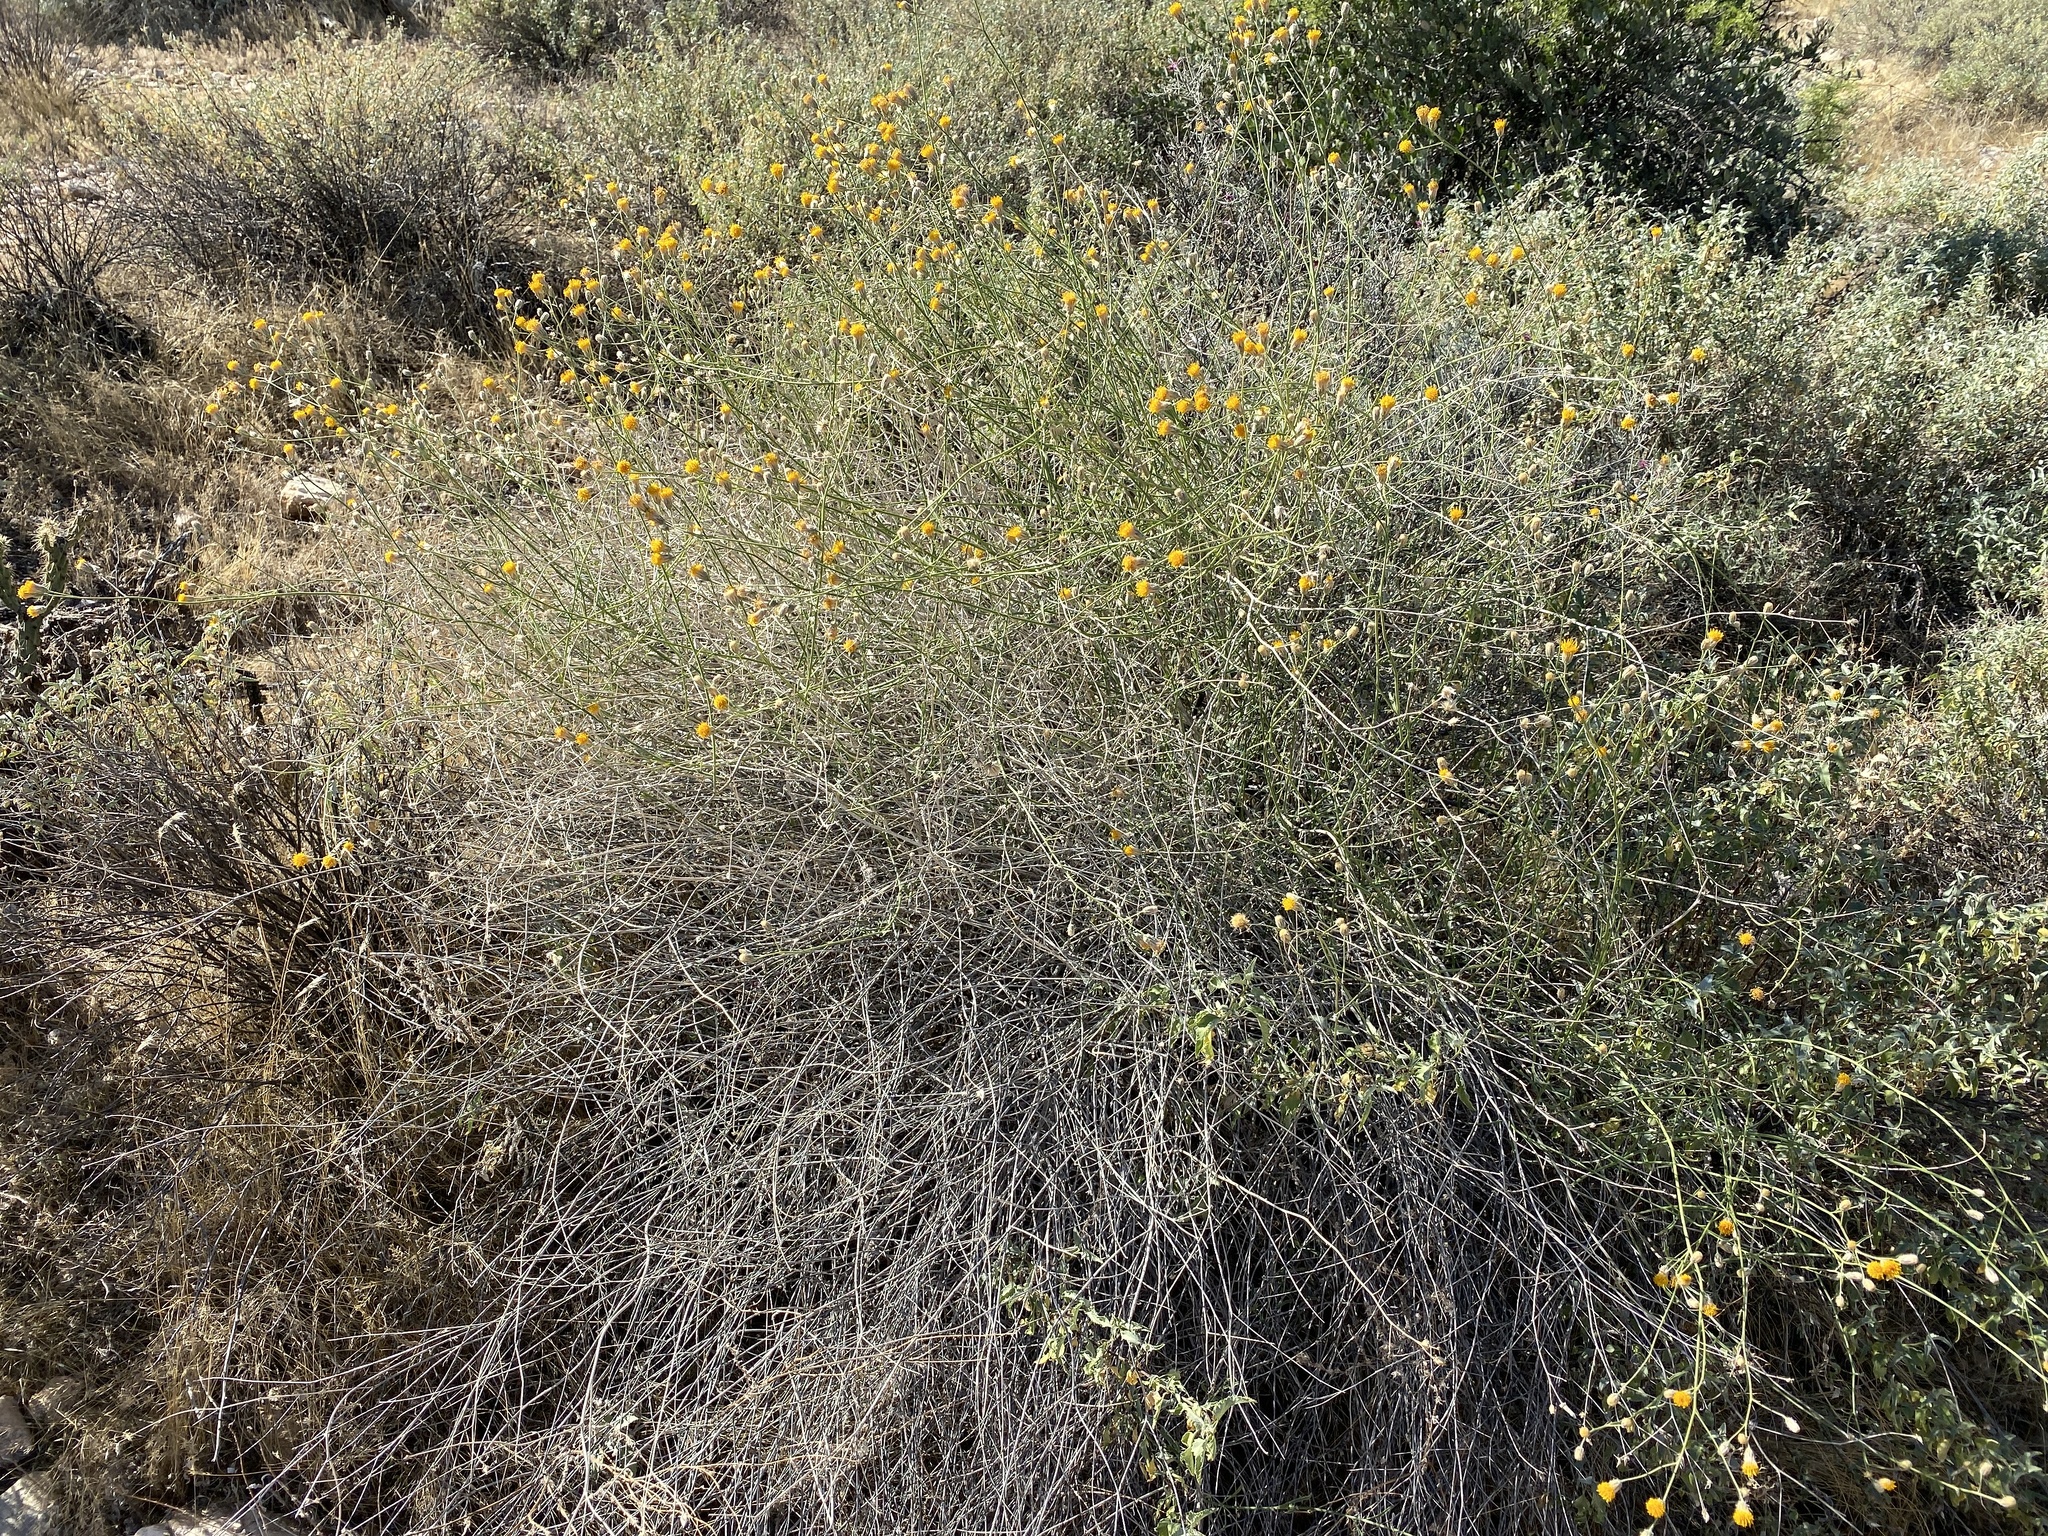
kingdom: Plantae
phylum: Tracheophyta
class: Magnoliopsida
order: Asterales
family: Asteraceae
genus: Bebbia
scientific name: Bebbia juncea
